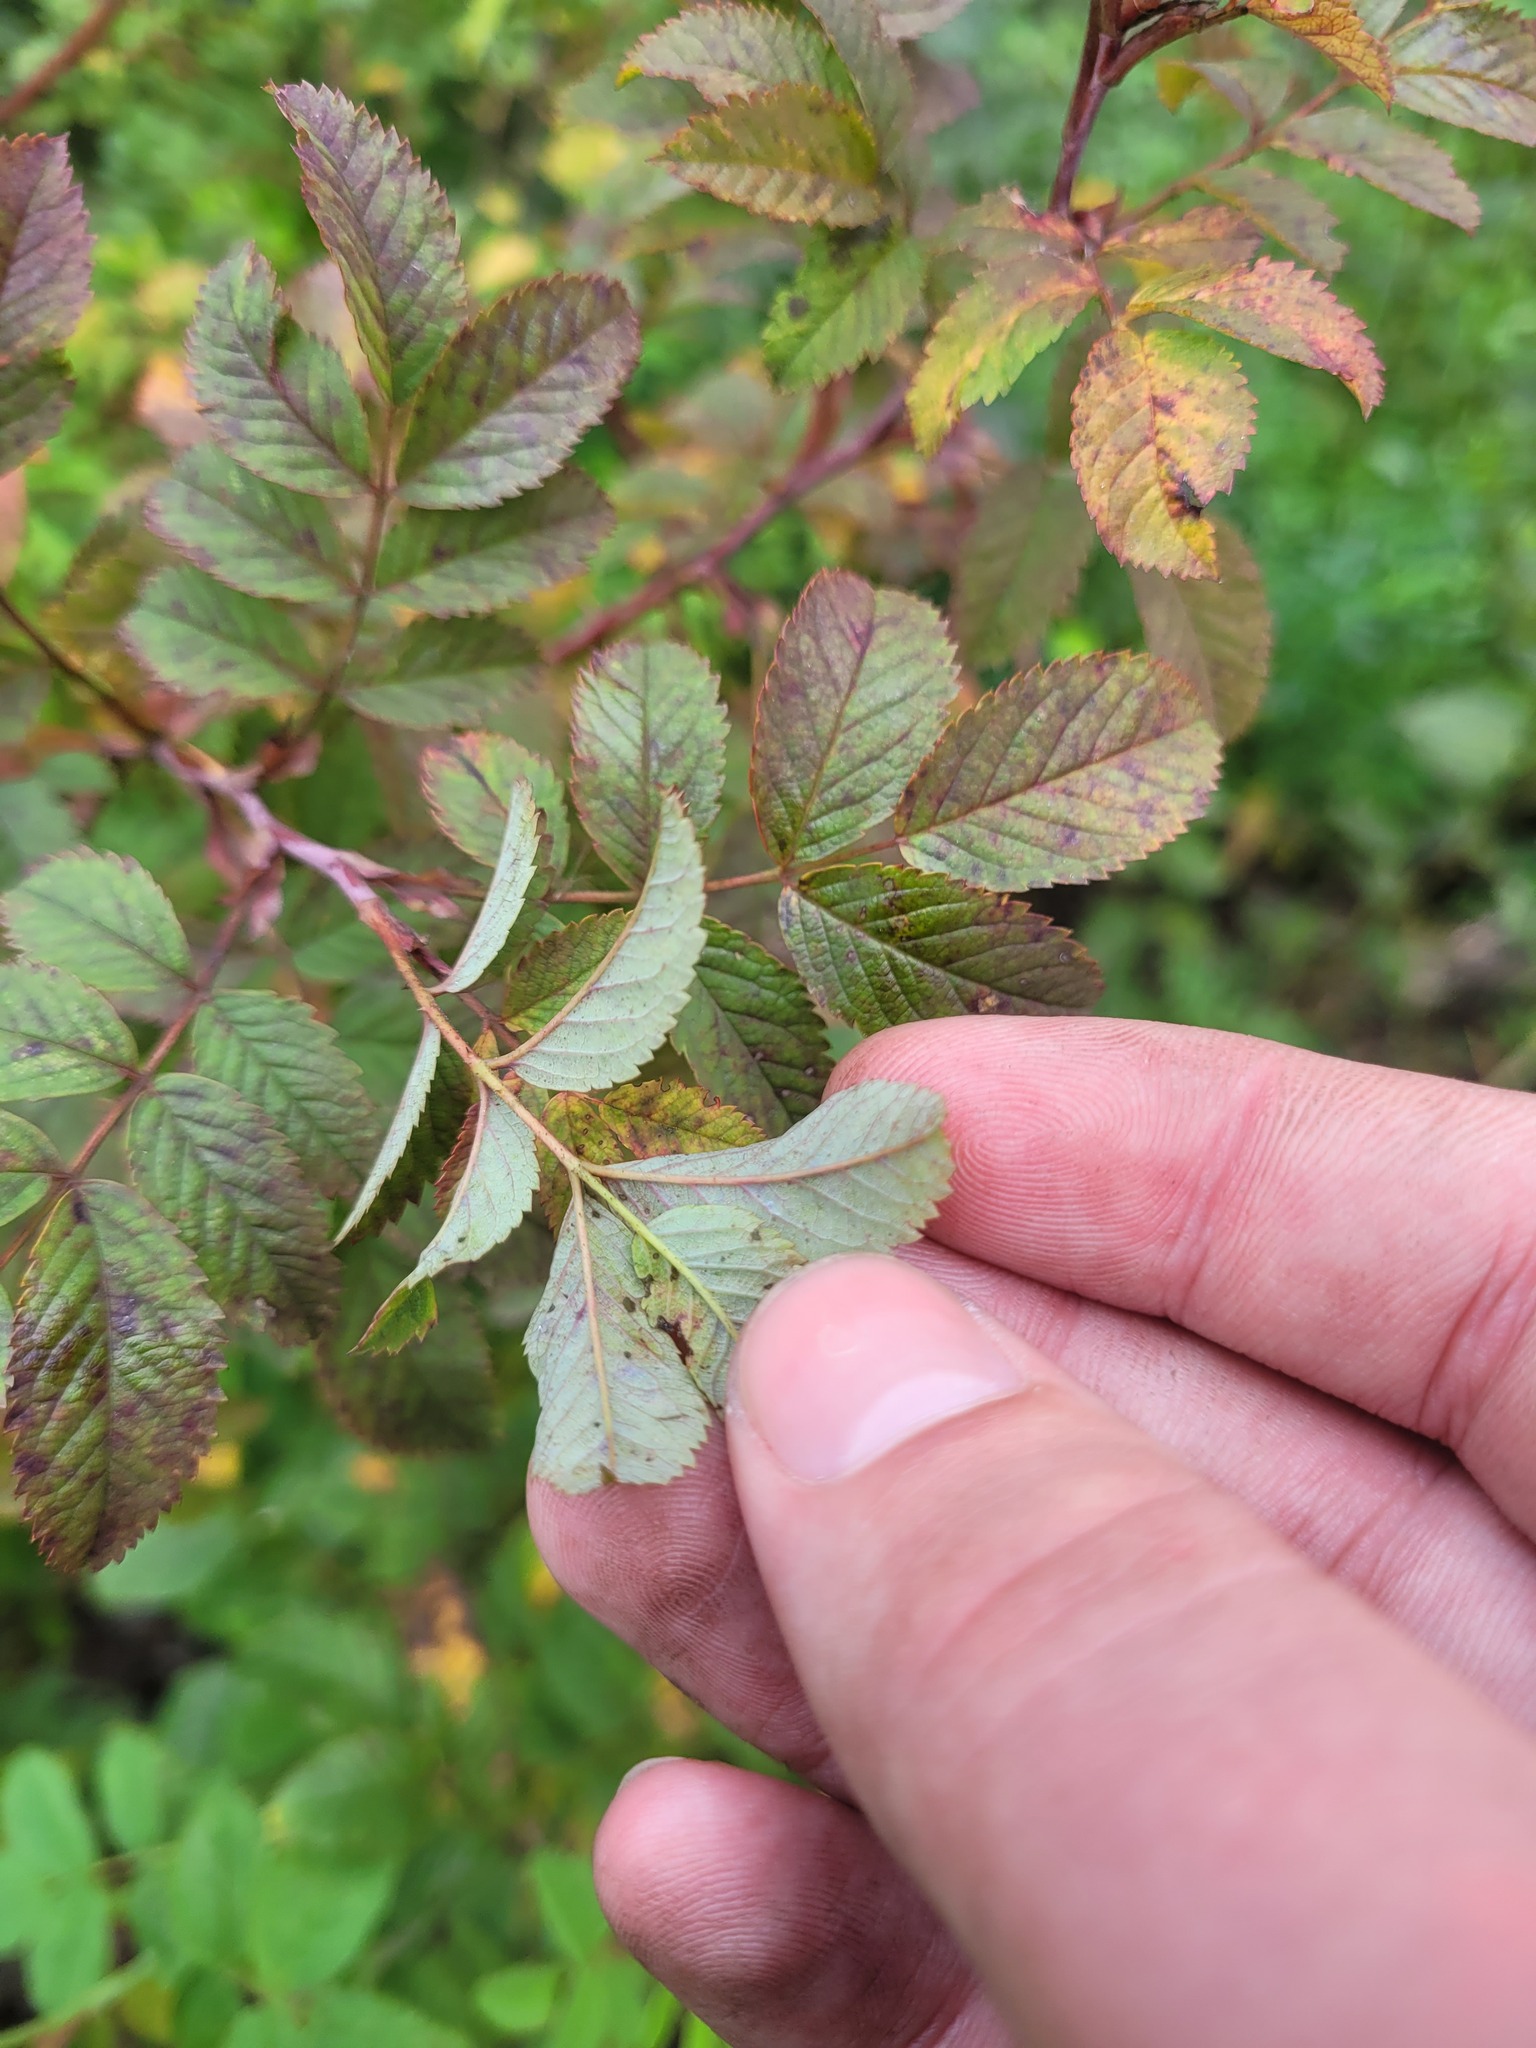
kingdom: Plantae
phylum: Tracheophyta
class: Magnoliopsida
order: Rosales
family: Rosaceae
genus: Rosa
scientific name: Rosa majalis
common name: Cinnamon rose
